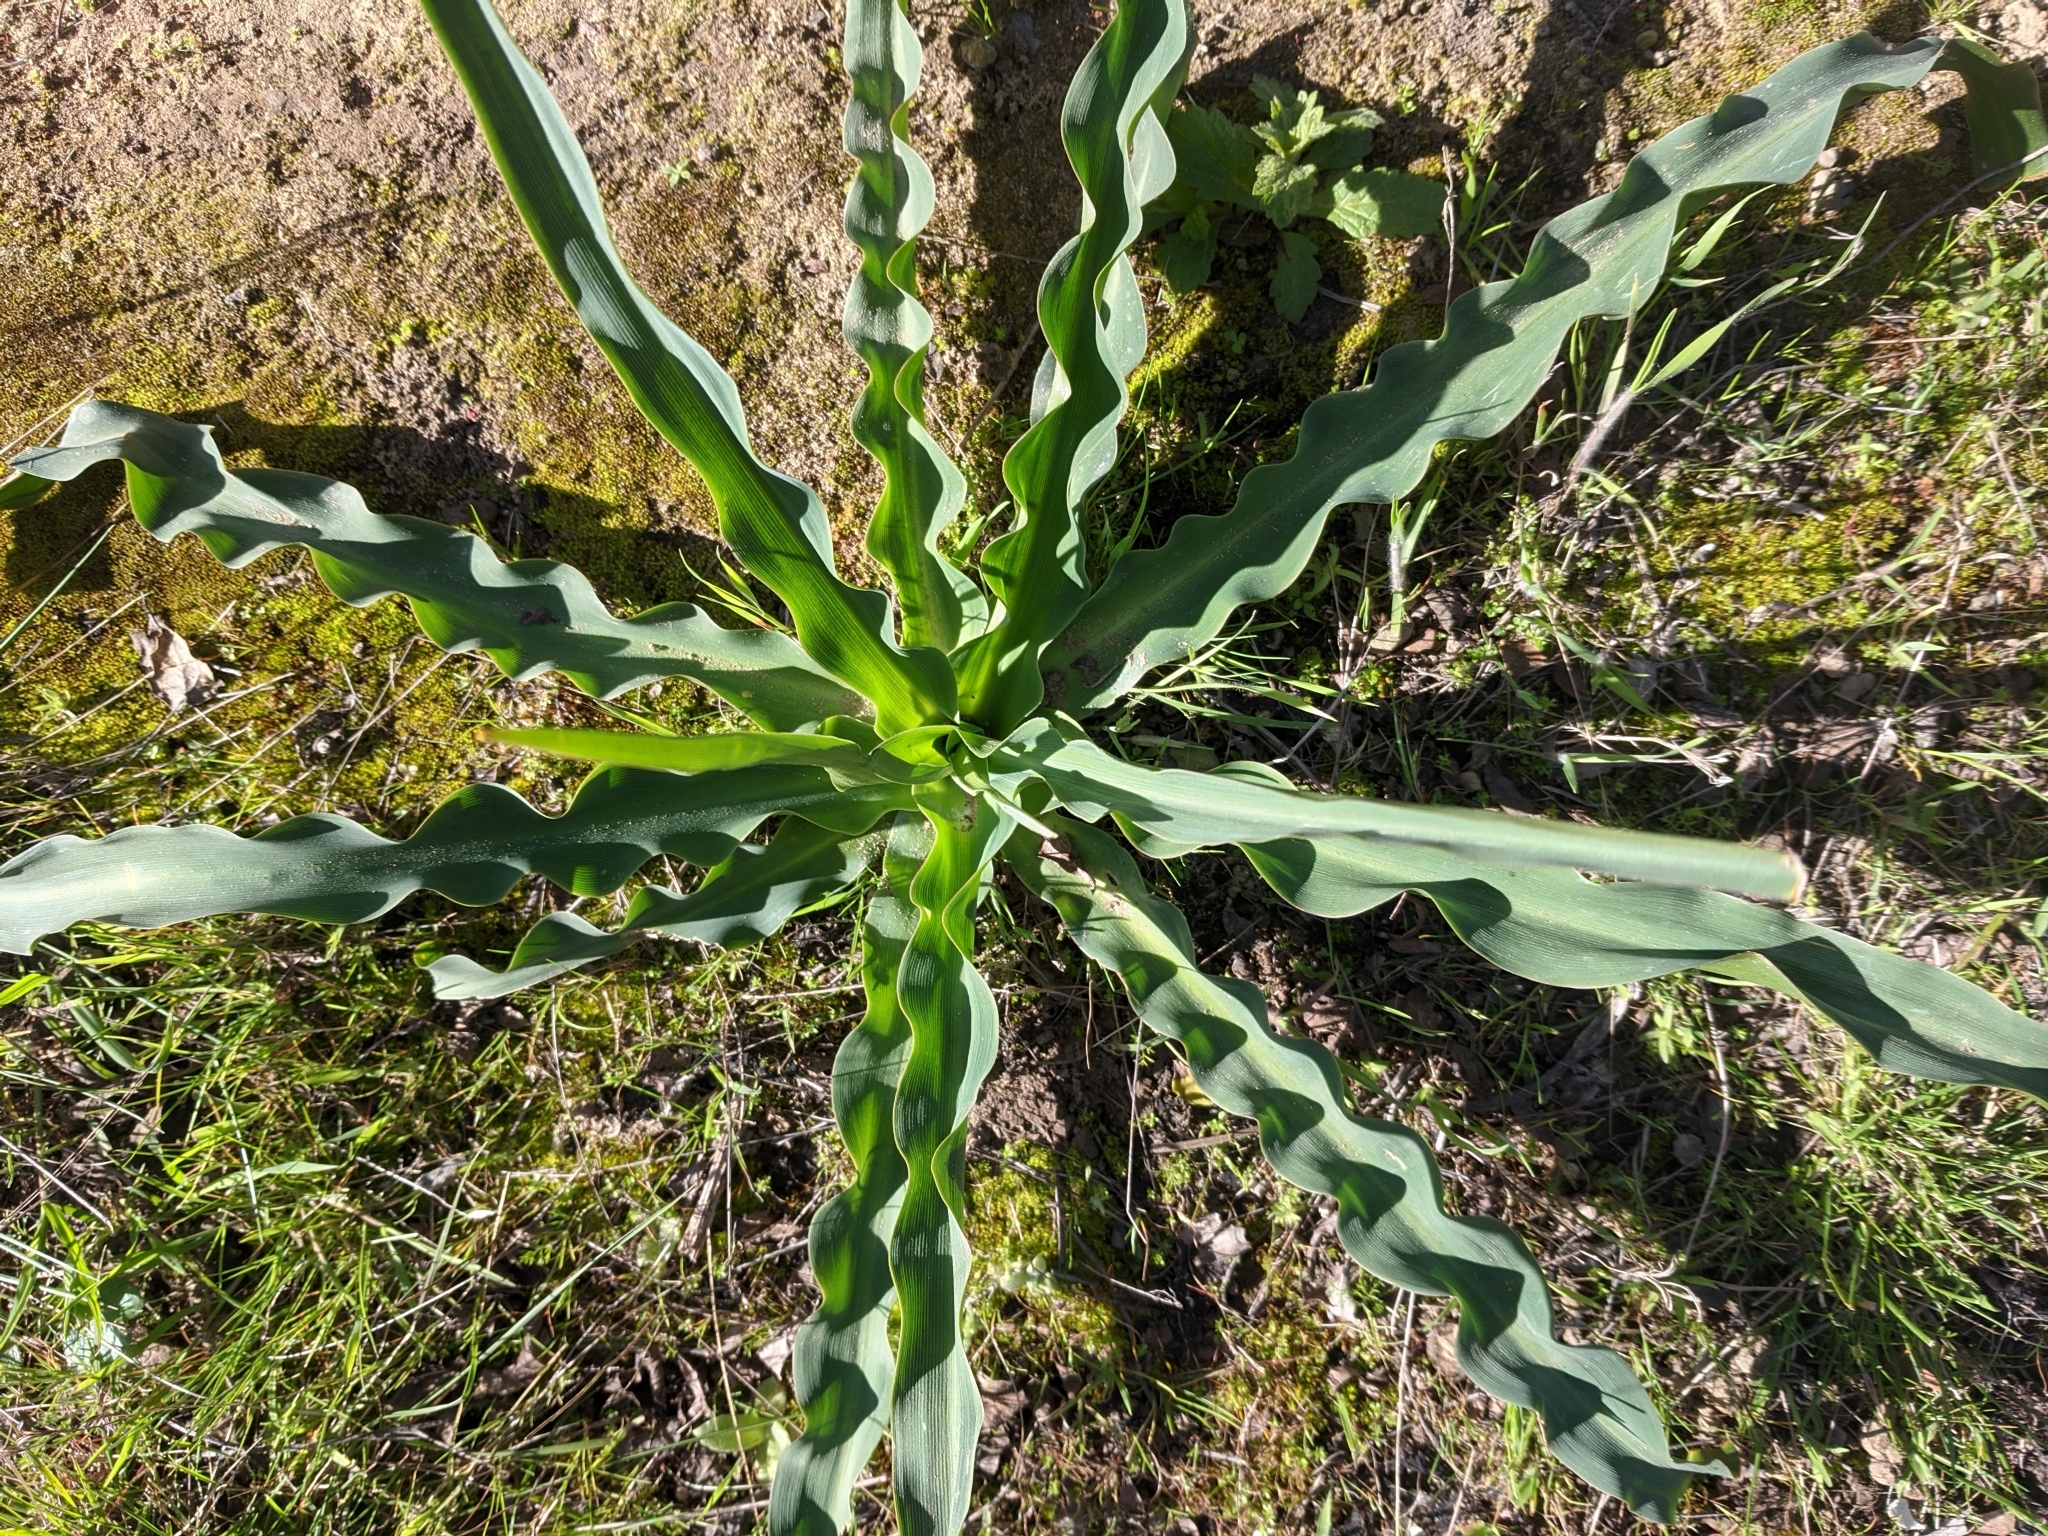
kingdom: Plantae
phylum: Tracheophyta
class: Liliopsida
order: Asparagales
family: Asparagaceae
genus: Chlorogalum
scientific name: Chlorogalum pomeridianum
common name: Amole
